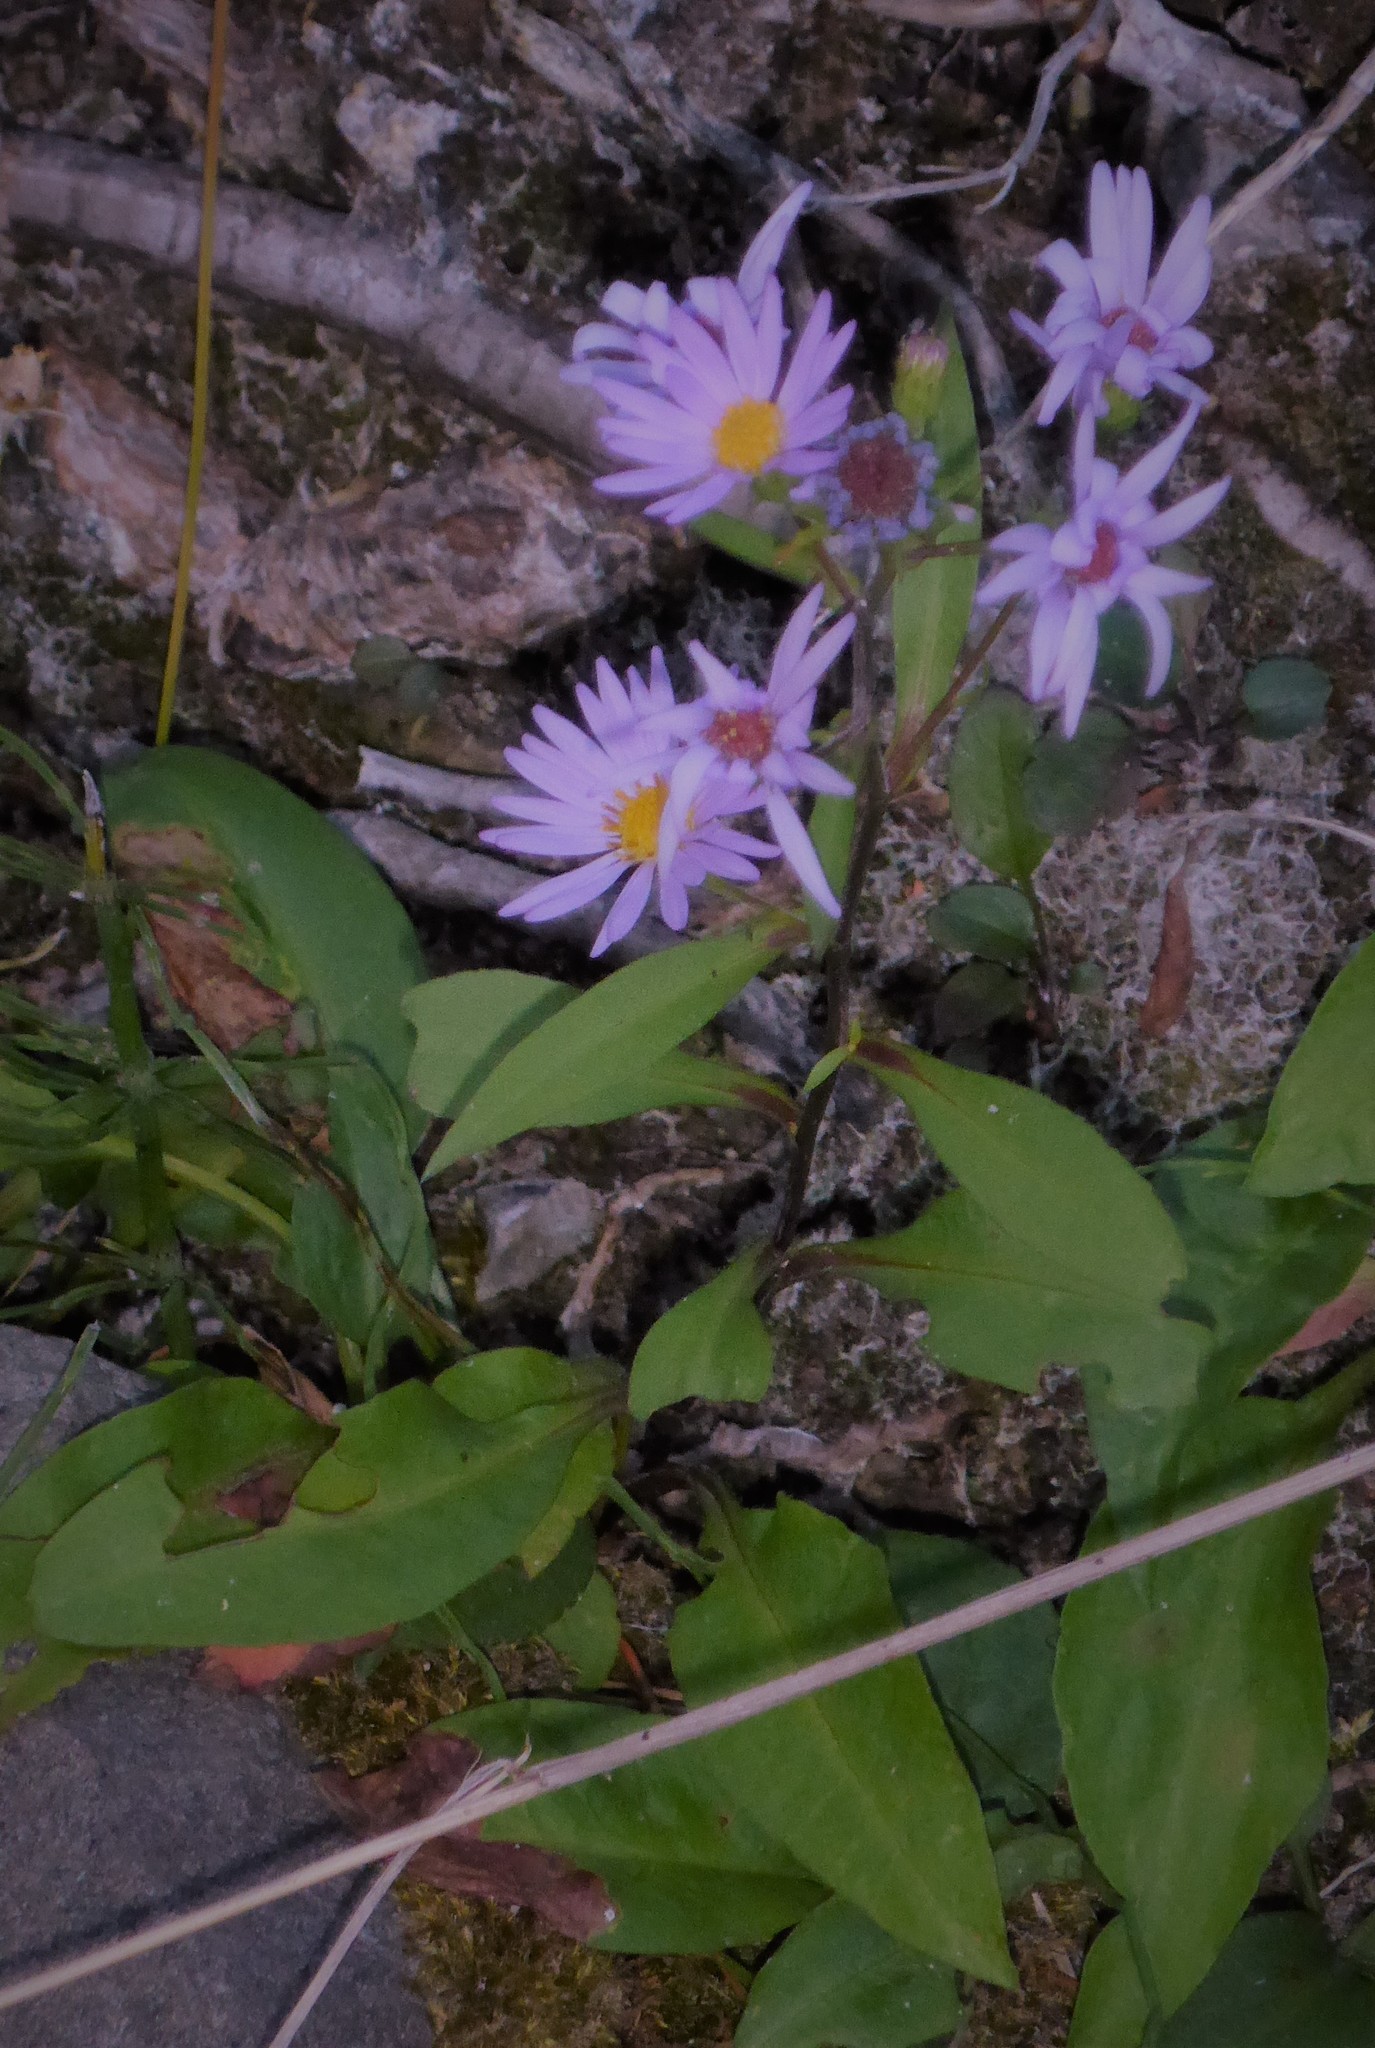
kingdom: Plantae
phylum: Tracheophyta
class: Magnoliopsida
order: Asterales
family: Asteraceae
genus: Symphyotrichum
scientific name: Symphyotrichum laeve
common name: Glaucous aster
